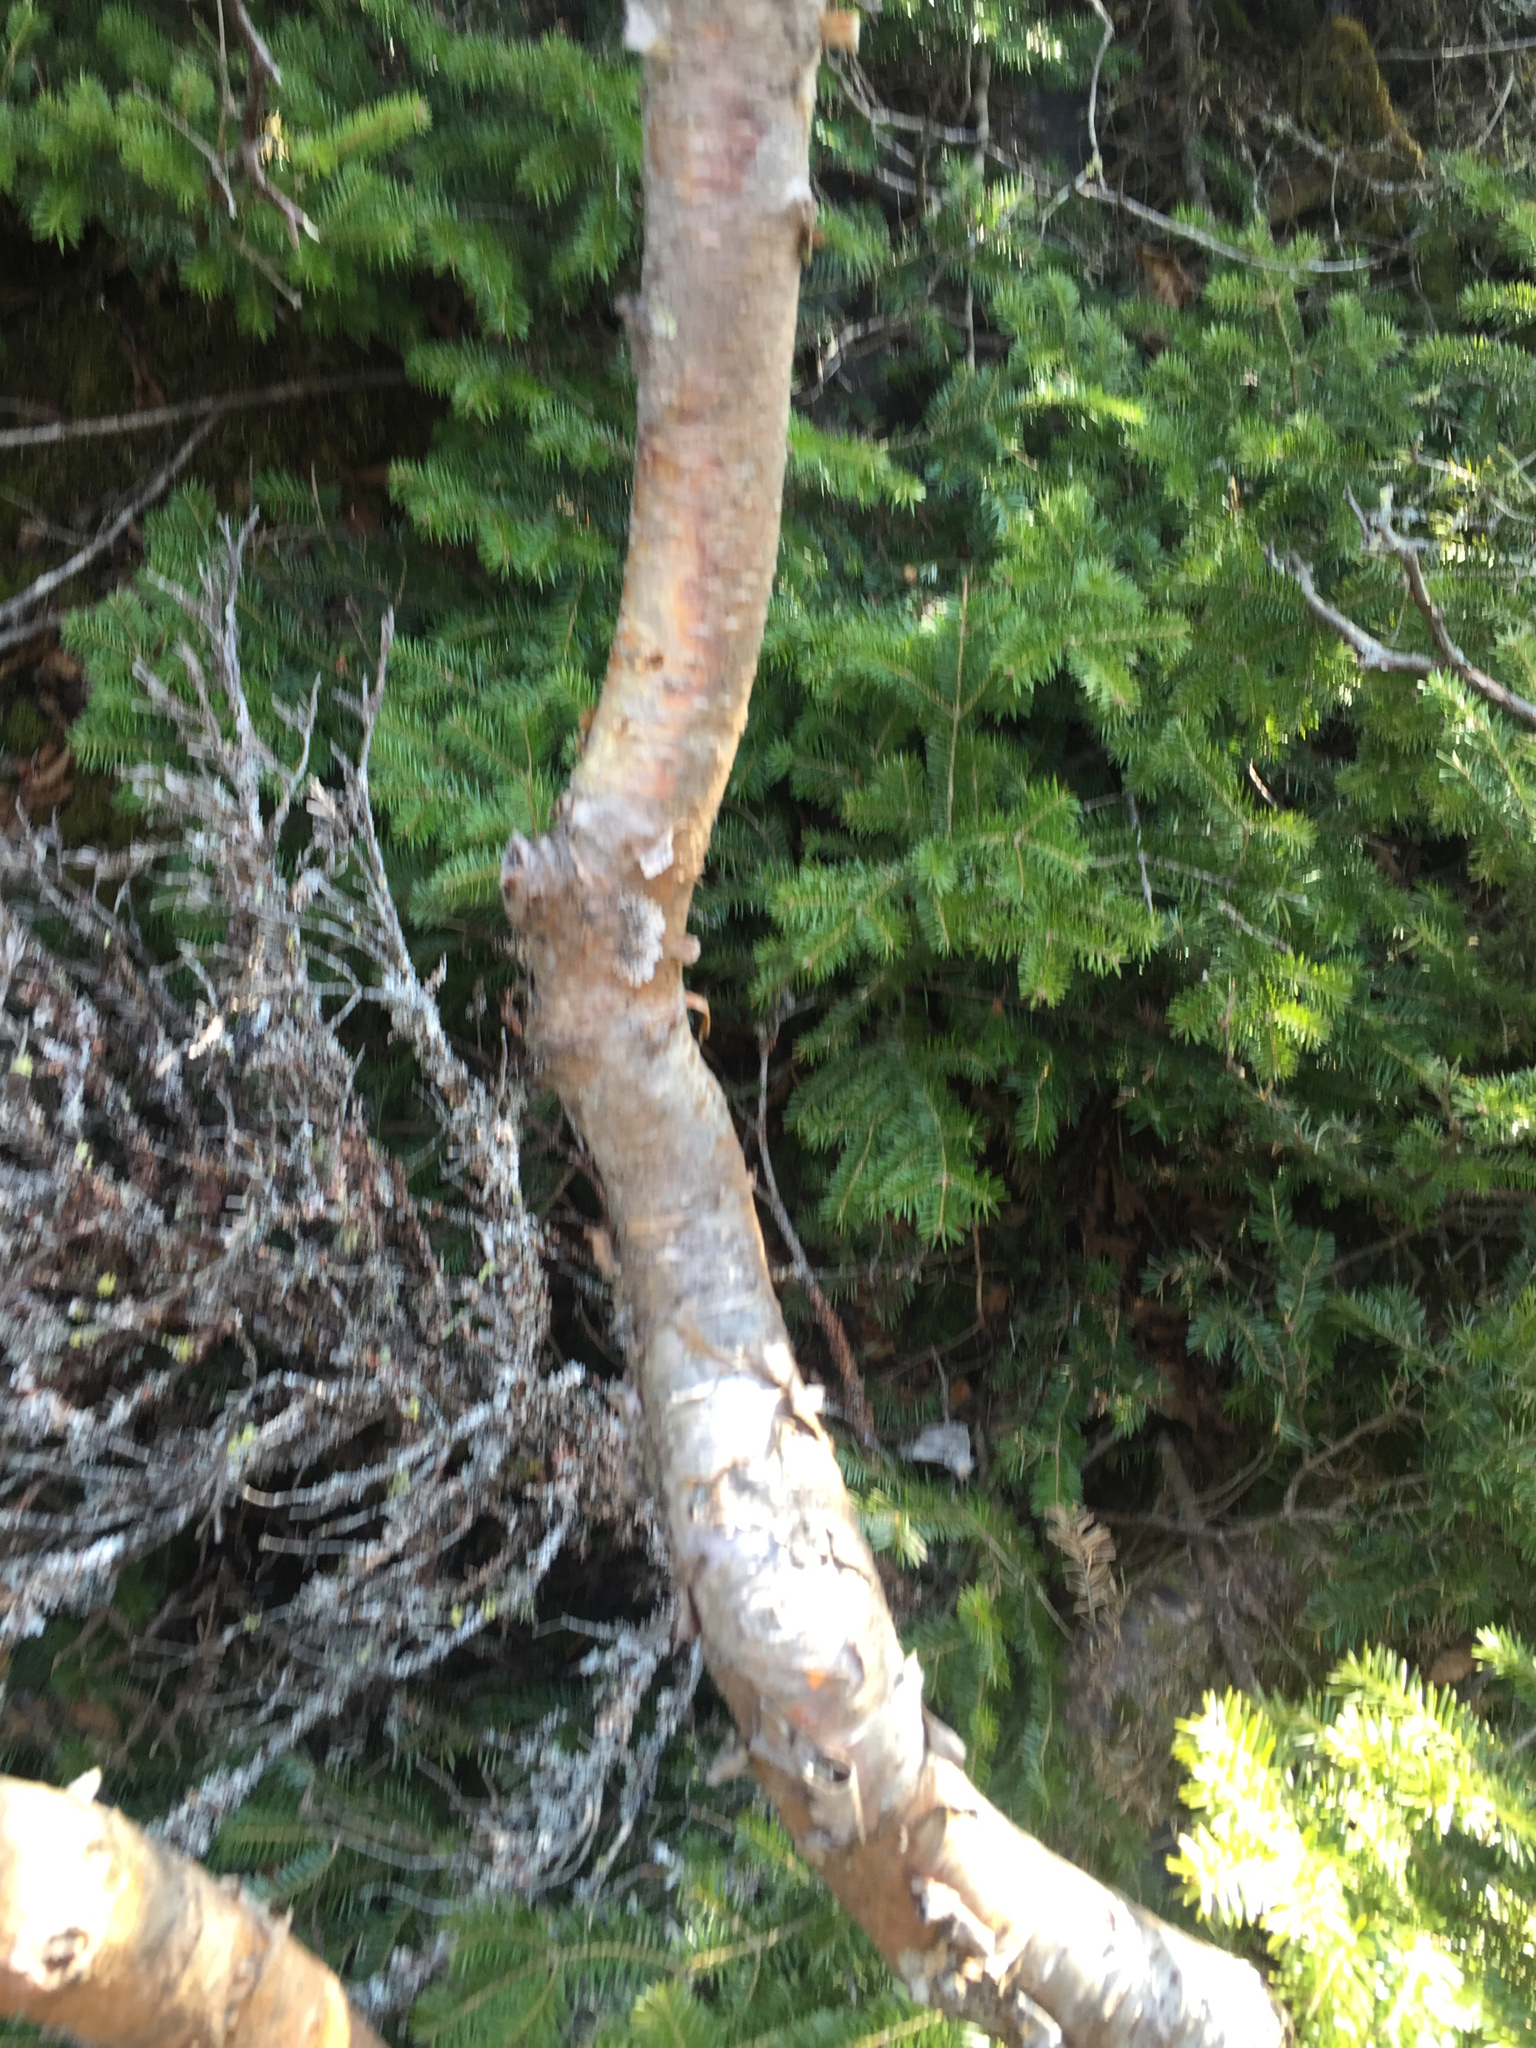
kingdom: Plantae
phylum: Tracheophyta
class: Magnoliopsida
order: Fagales
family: Betulaceae
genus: Betula
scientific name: Betula cordifolia
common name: Mountain white birch
